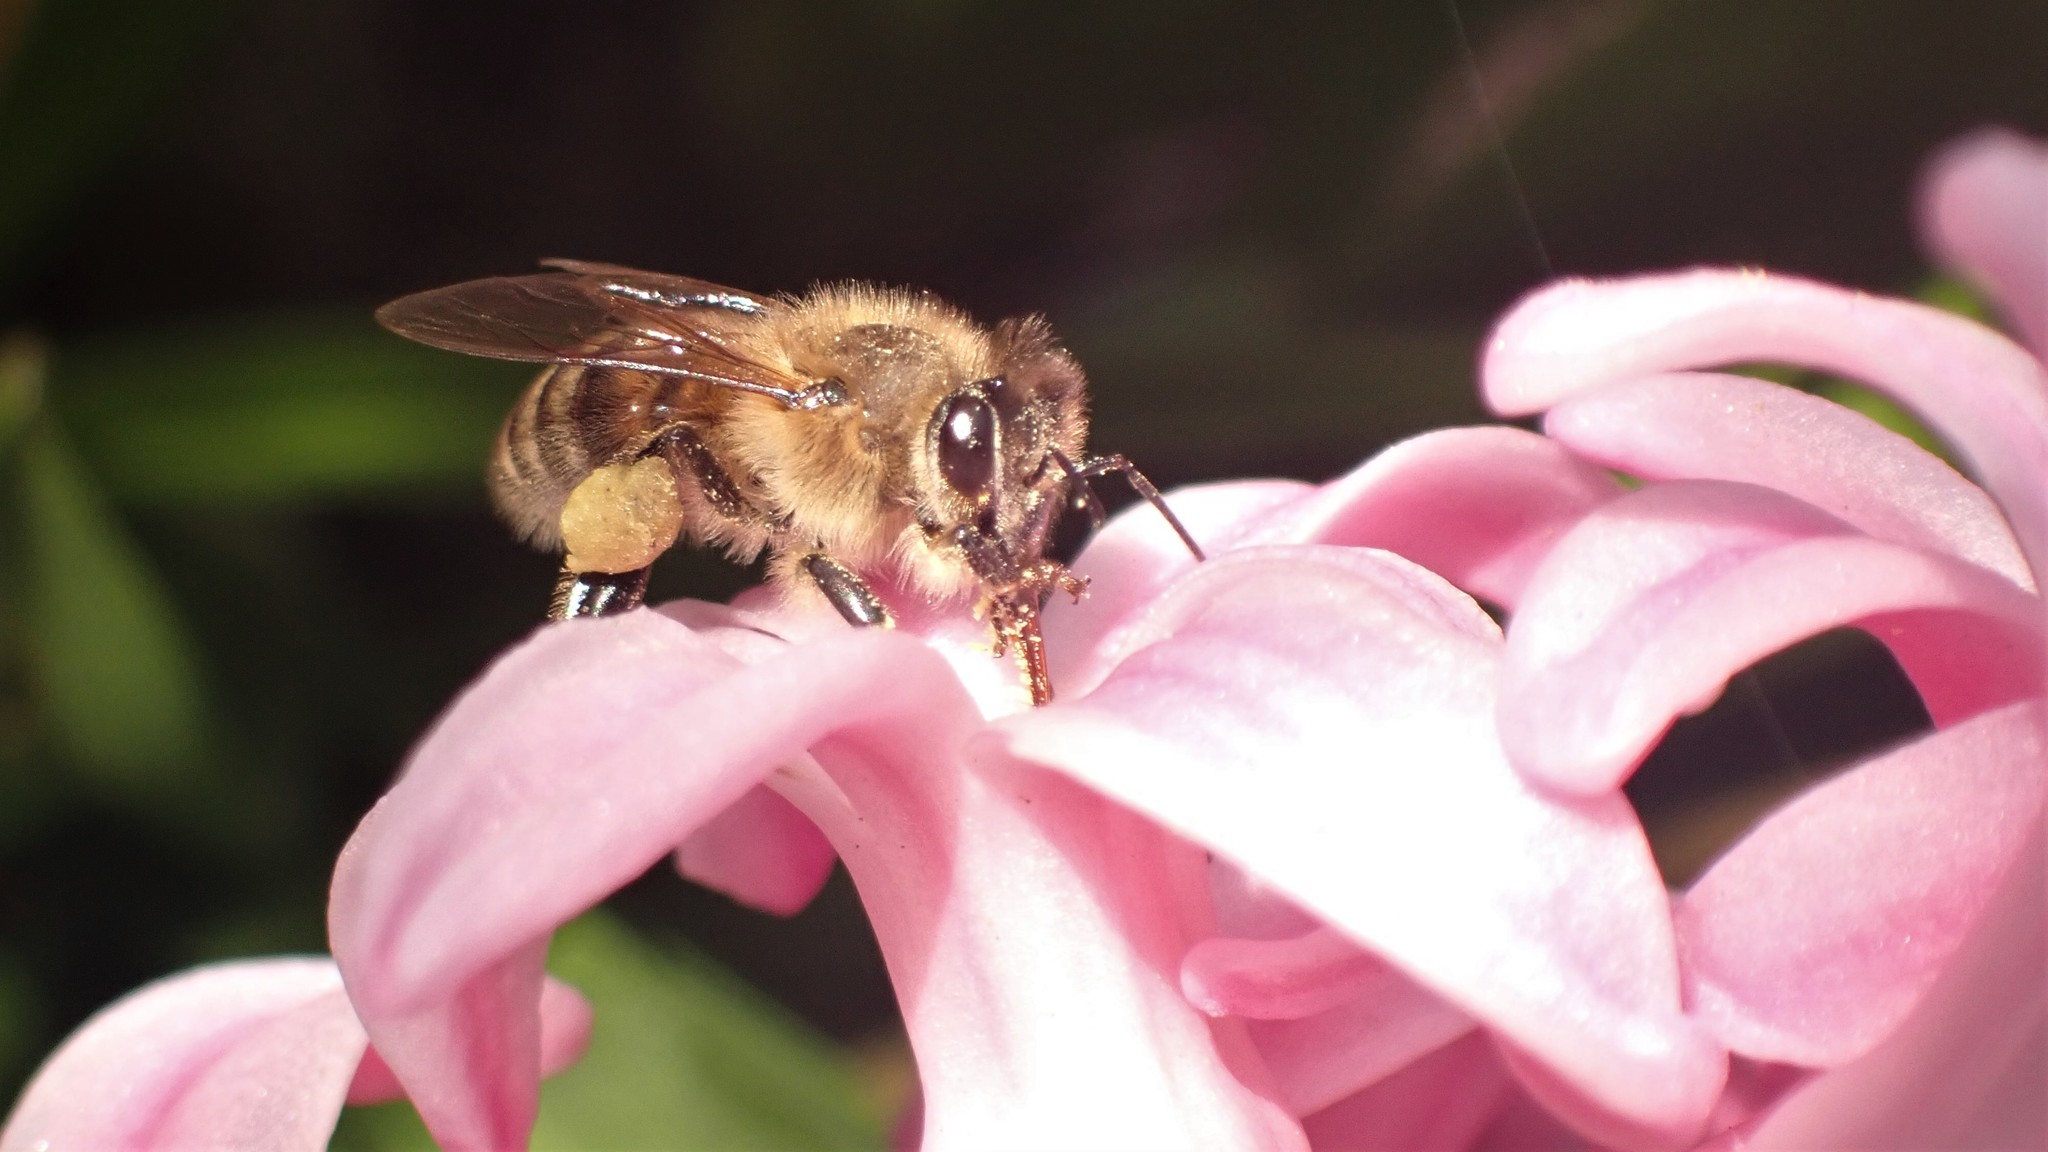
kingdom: Animalia
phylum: Arthropoda
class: Insecta
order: Hymenoptera
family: Apidae
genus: Apis
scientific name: Apis mellifera
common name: Honey bee
